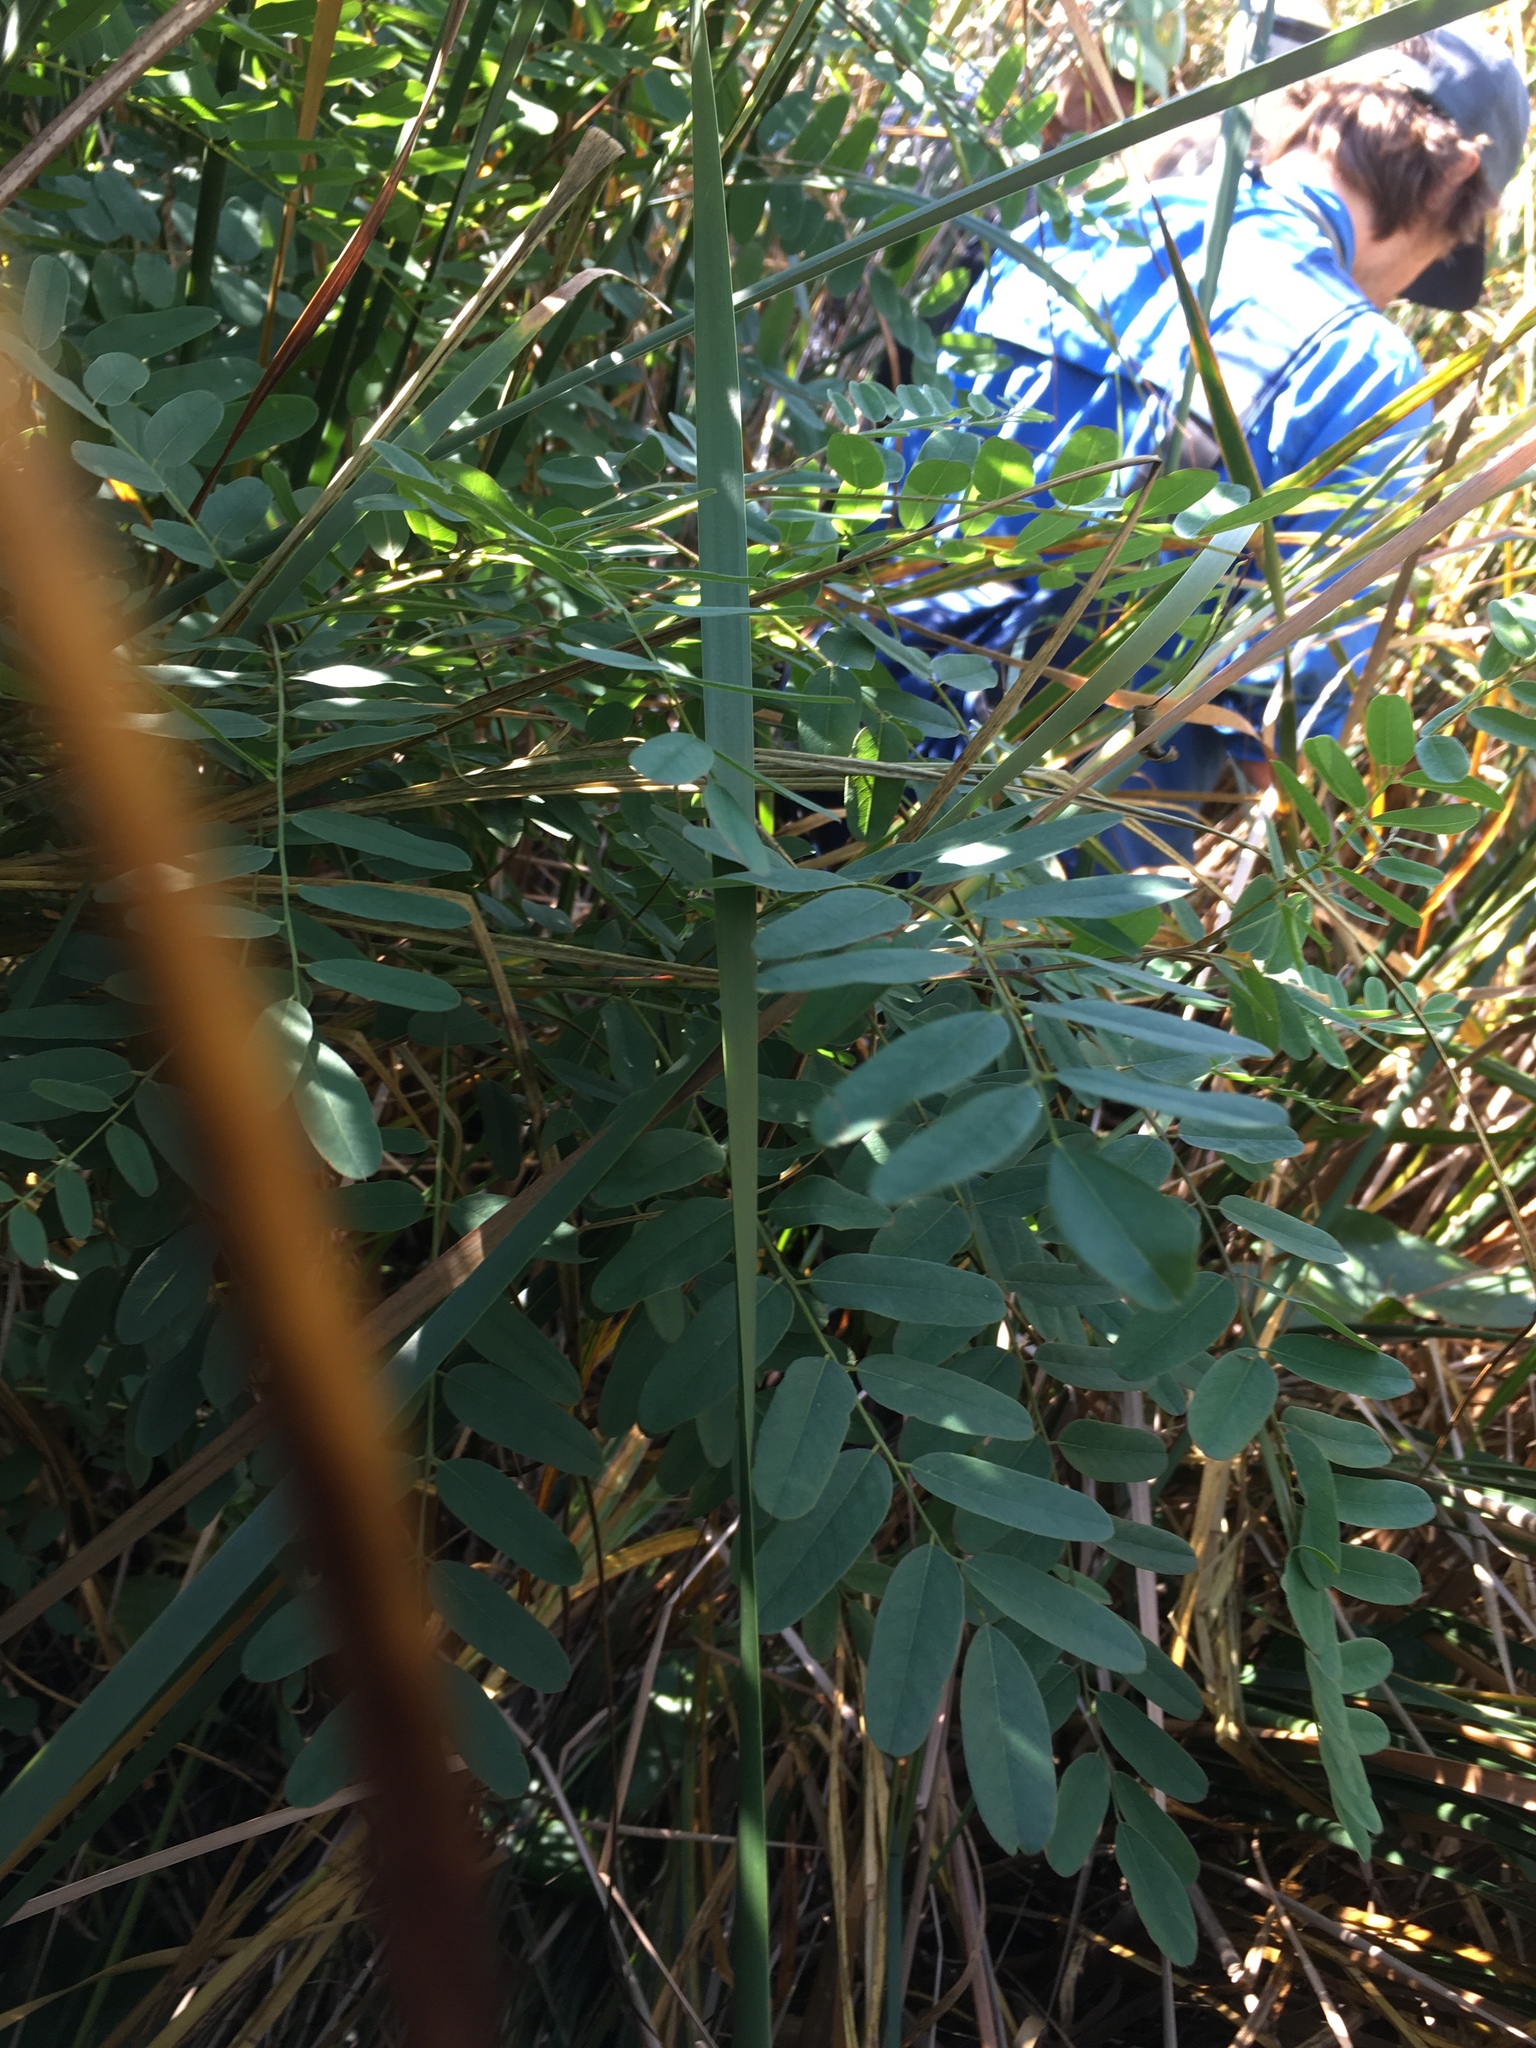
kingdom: Plantae
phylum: Tracheophyta
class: Magnoliopsida
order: Fabales
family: Fabaceae
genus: Amorpha
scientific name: Amorpha fruticosa
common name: False indigo
